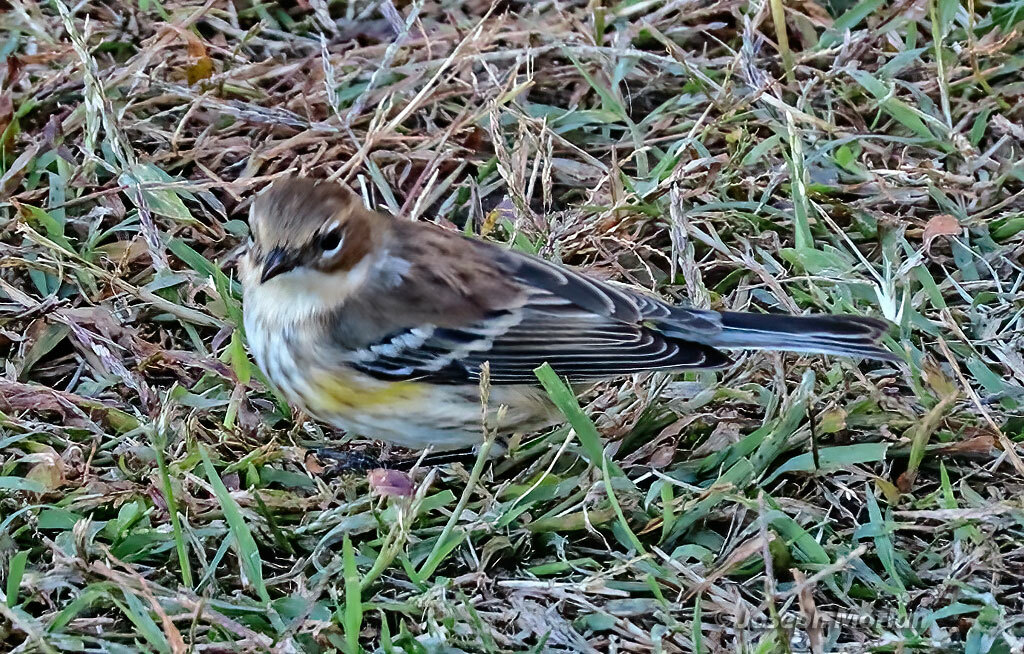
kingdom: Animalia
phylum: Chordata
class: Aves
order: Passeriformes
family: Parulidae
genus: Setophaga
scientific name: Setophaga coronata
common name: Myrtle warbler
